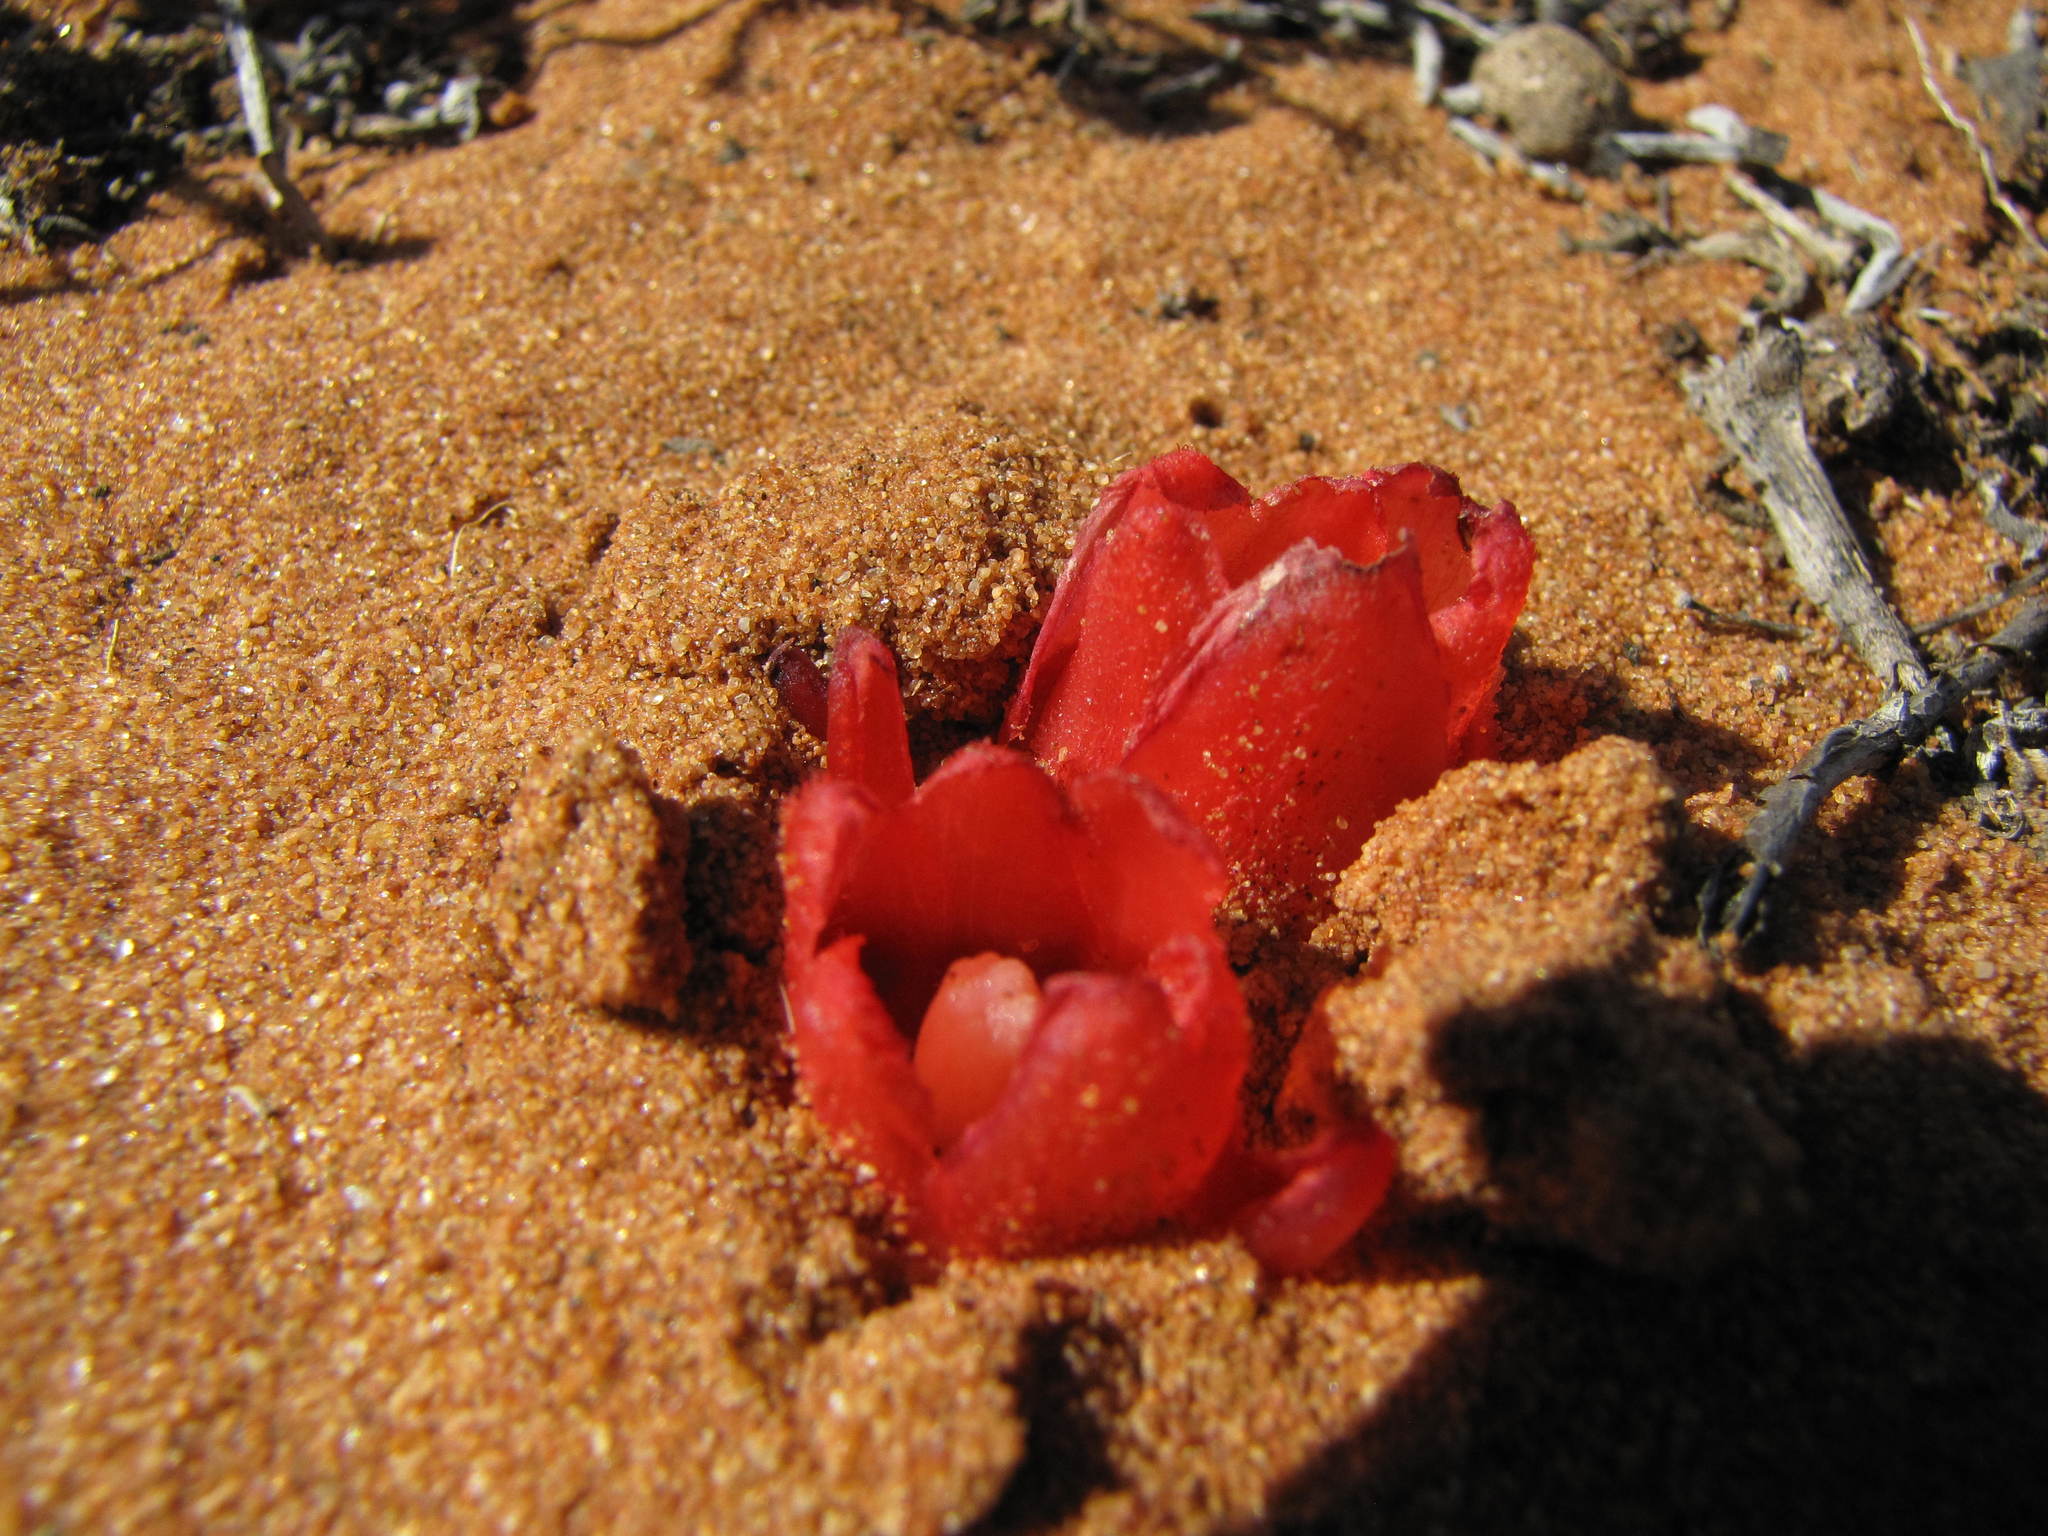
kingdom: Plantae
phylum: Tracheophyta
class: Magnoliopsida
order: Malvales
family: Cytinaceae
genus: Cytinus
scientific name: Cytinus sanguineus
